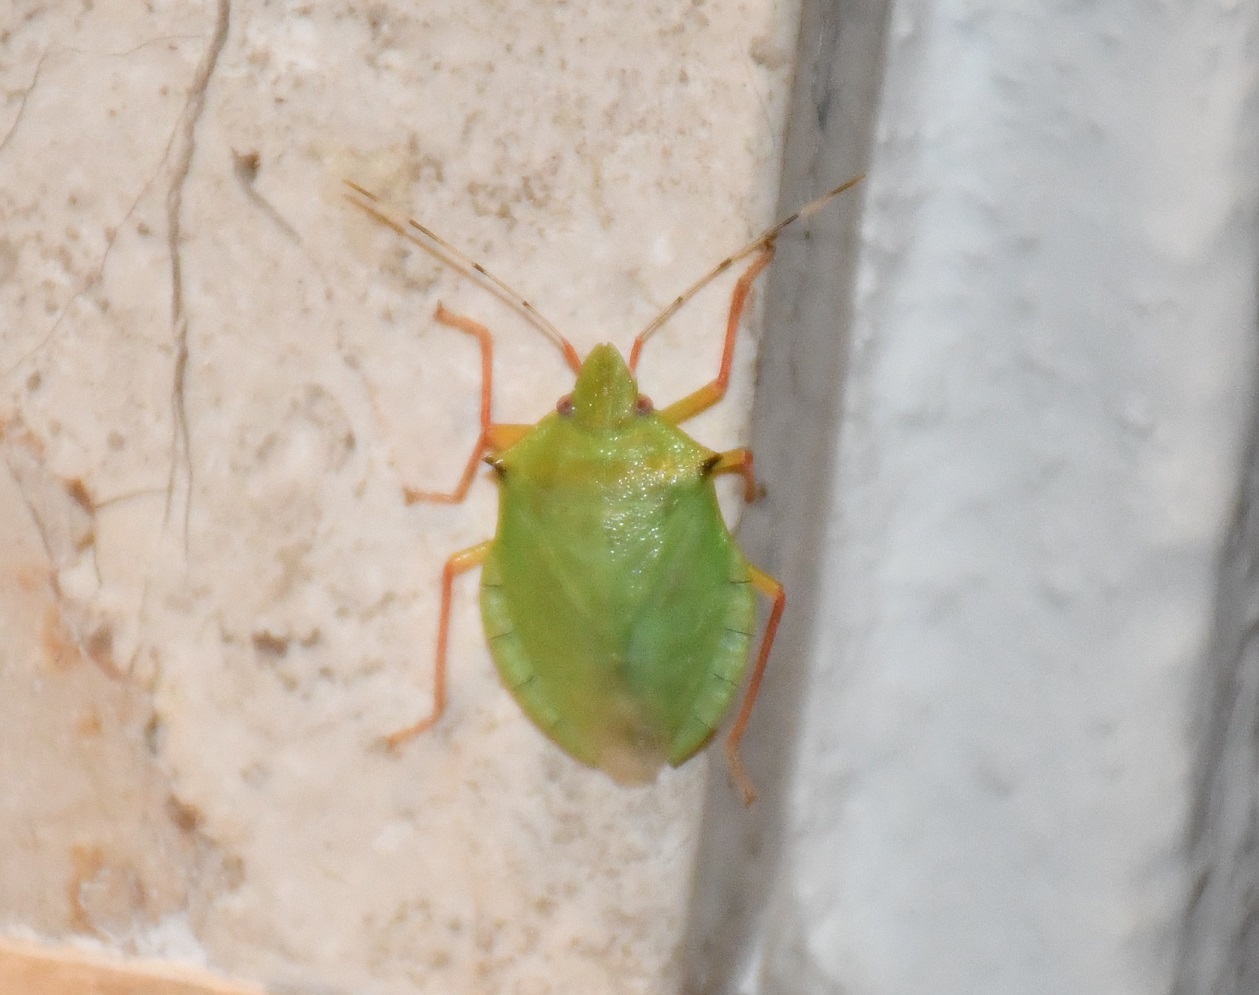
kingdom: Animalia
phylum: Arthropoda
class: Insecta
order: Hemiptera
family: Pentatomidae
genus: Chlorocoris
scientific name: Chlorocoris distinctus
